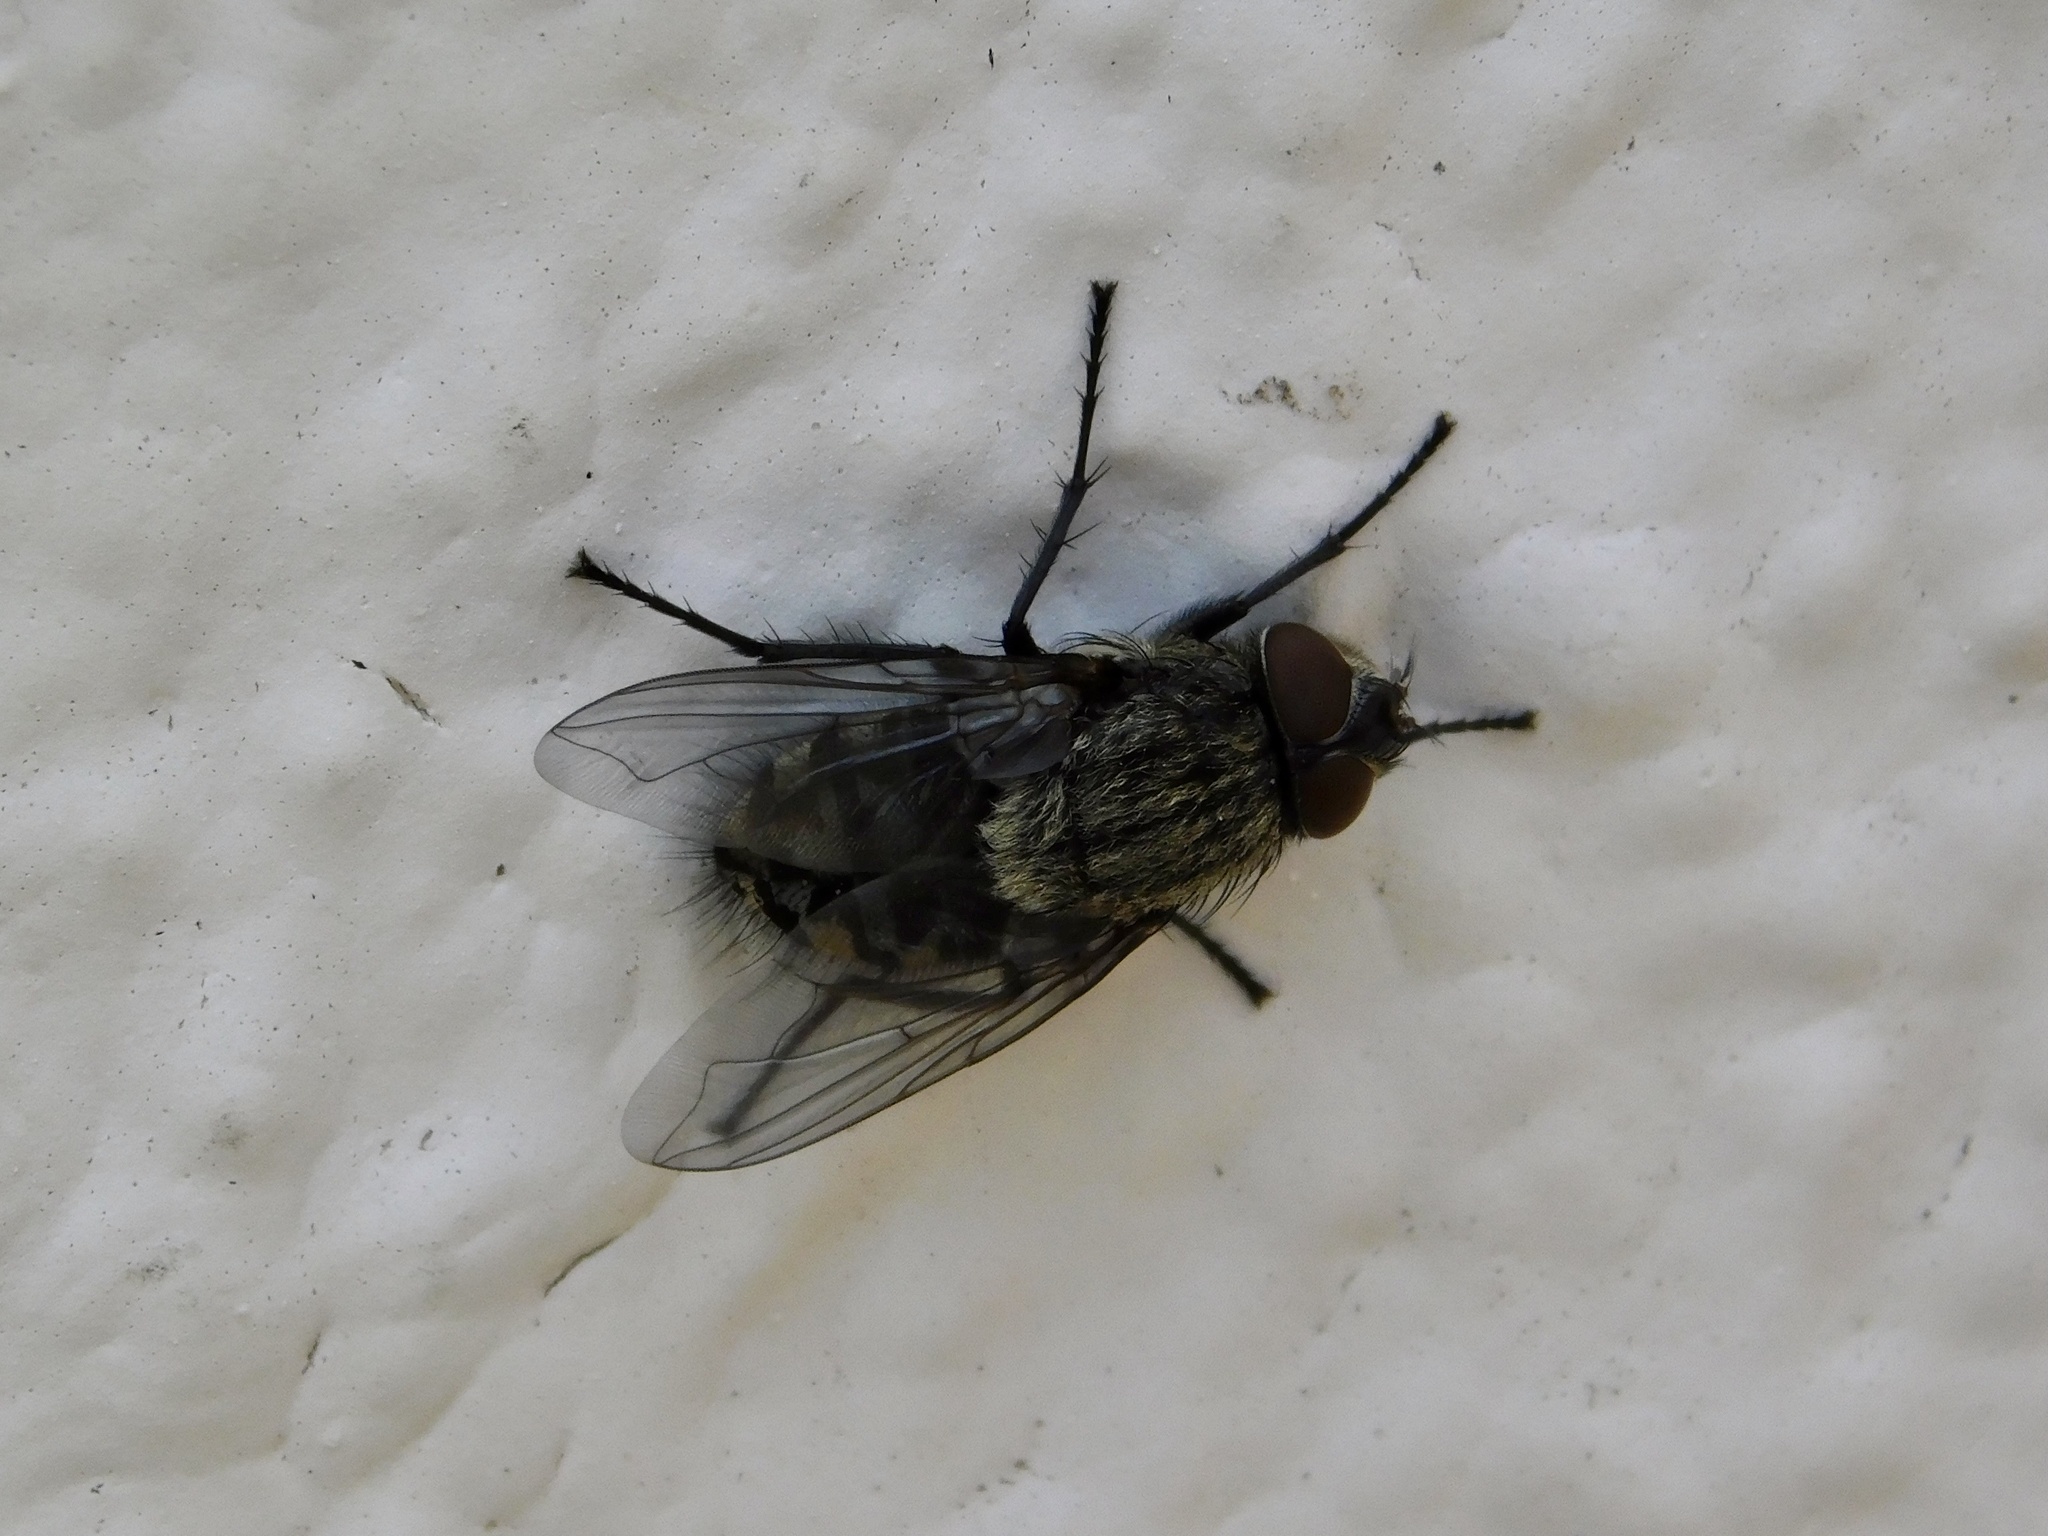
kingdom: Animalia
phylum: Arthropoda
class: Insecta
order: Diptera
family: Polleniidae
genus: Pollenia
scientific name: Pollenia
